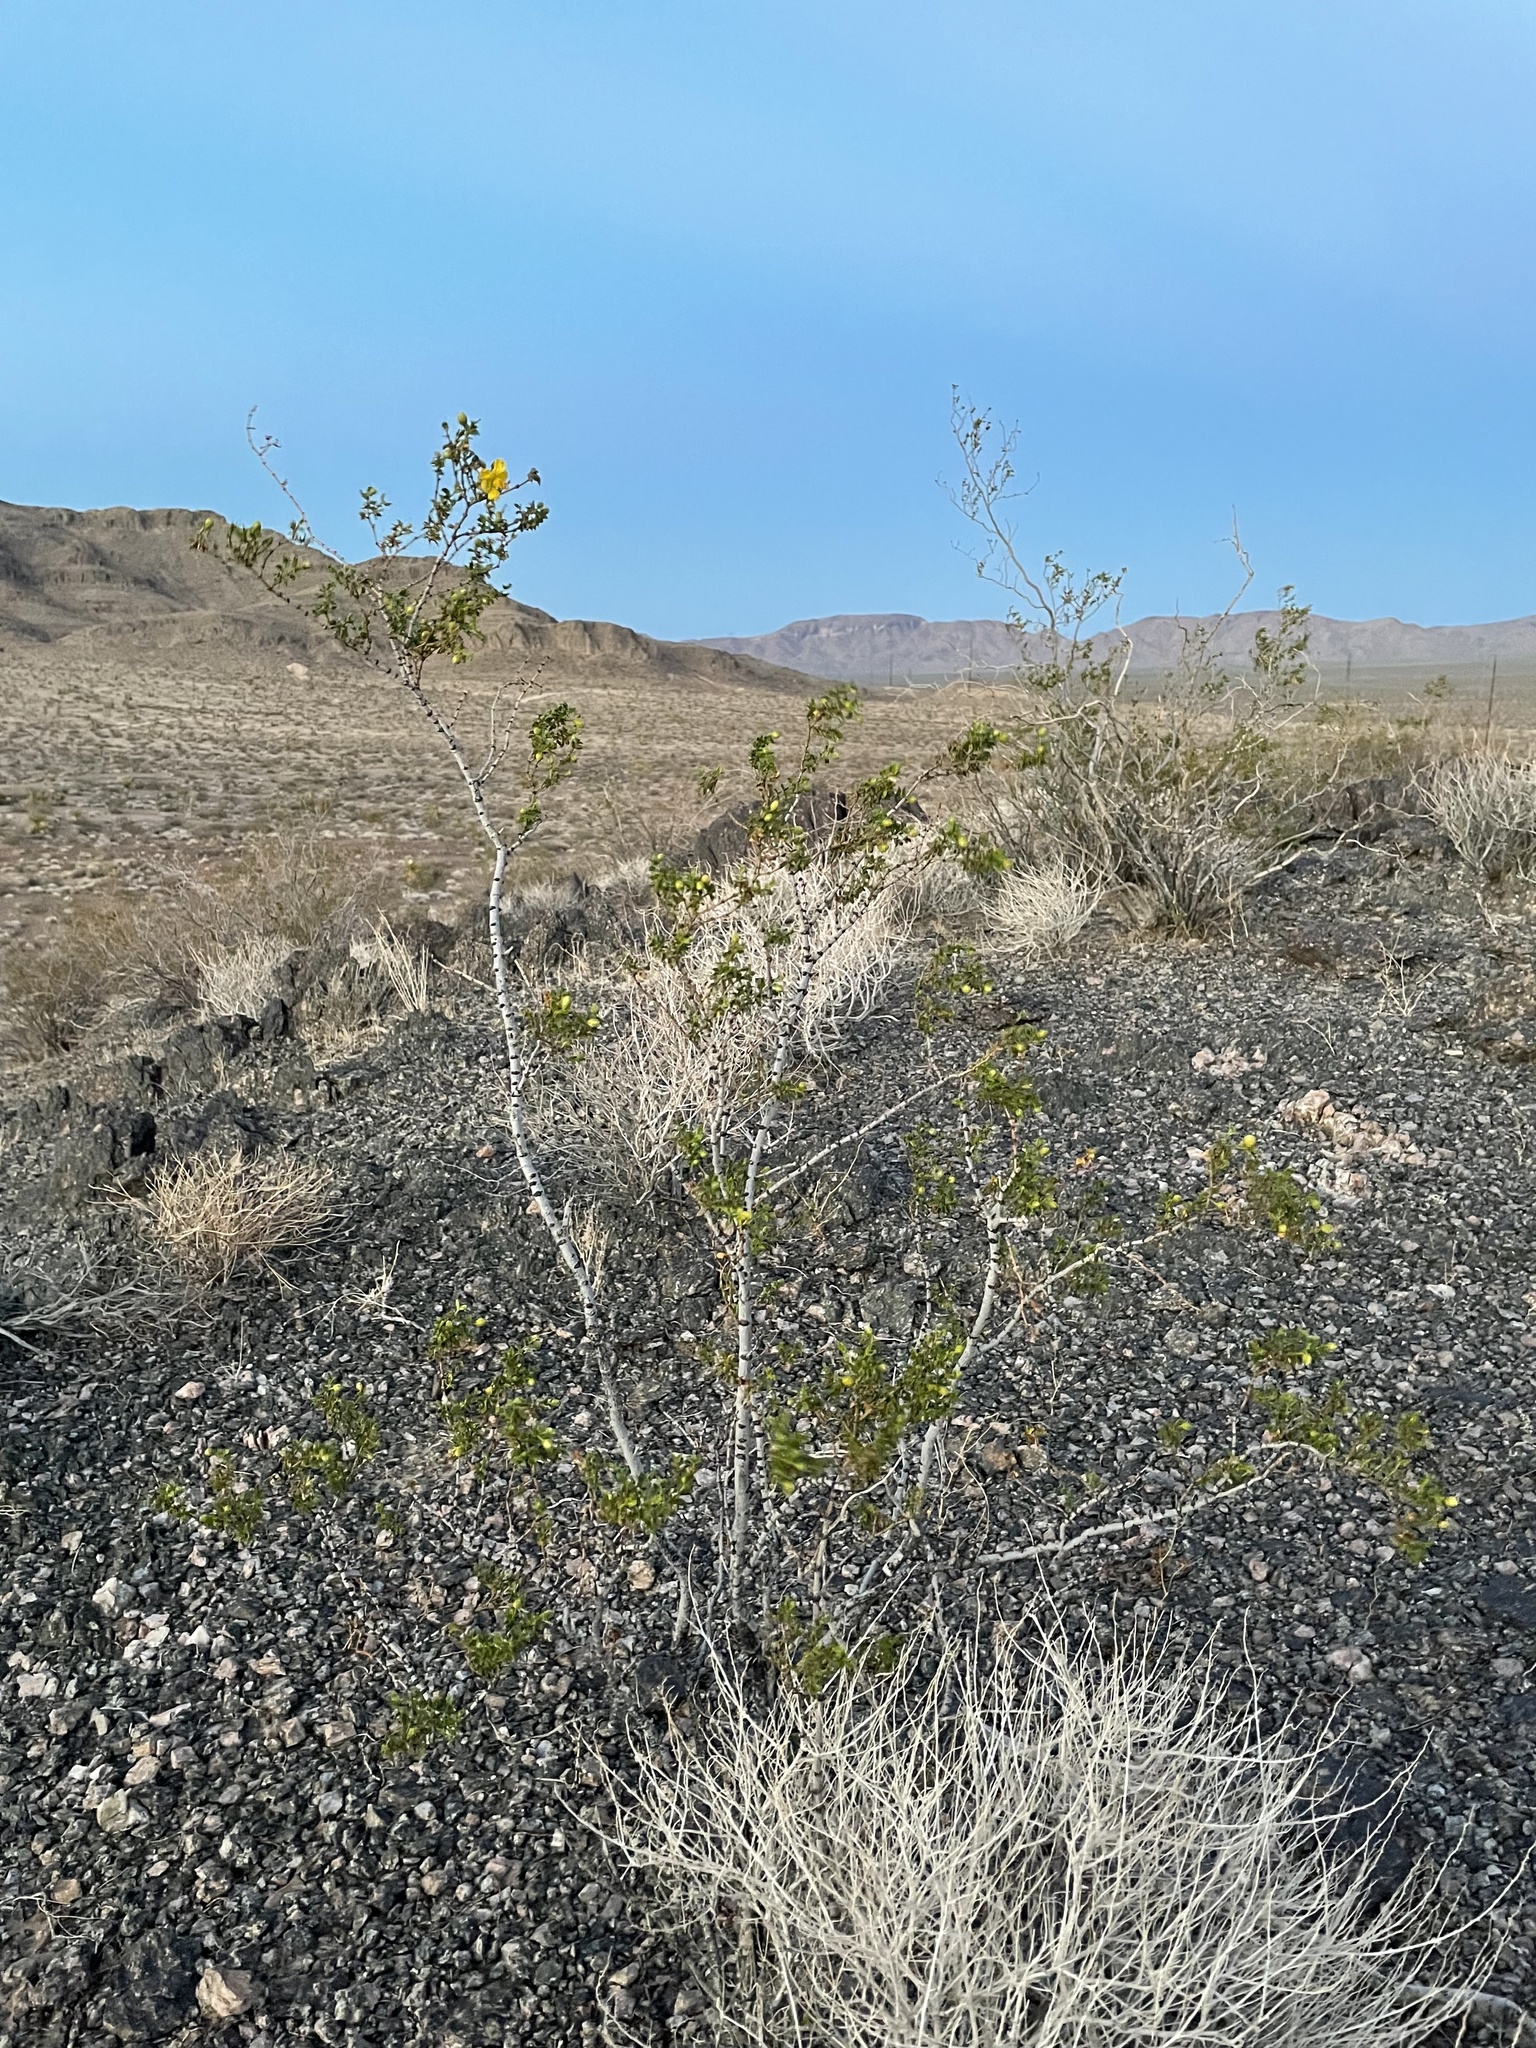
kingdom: Plantae
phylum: Tracheophyta
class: Magnoliopsida
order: Zygophyllales
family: Zygophyllaceae
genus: Larrea
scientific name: Larrea tridentata
